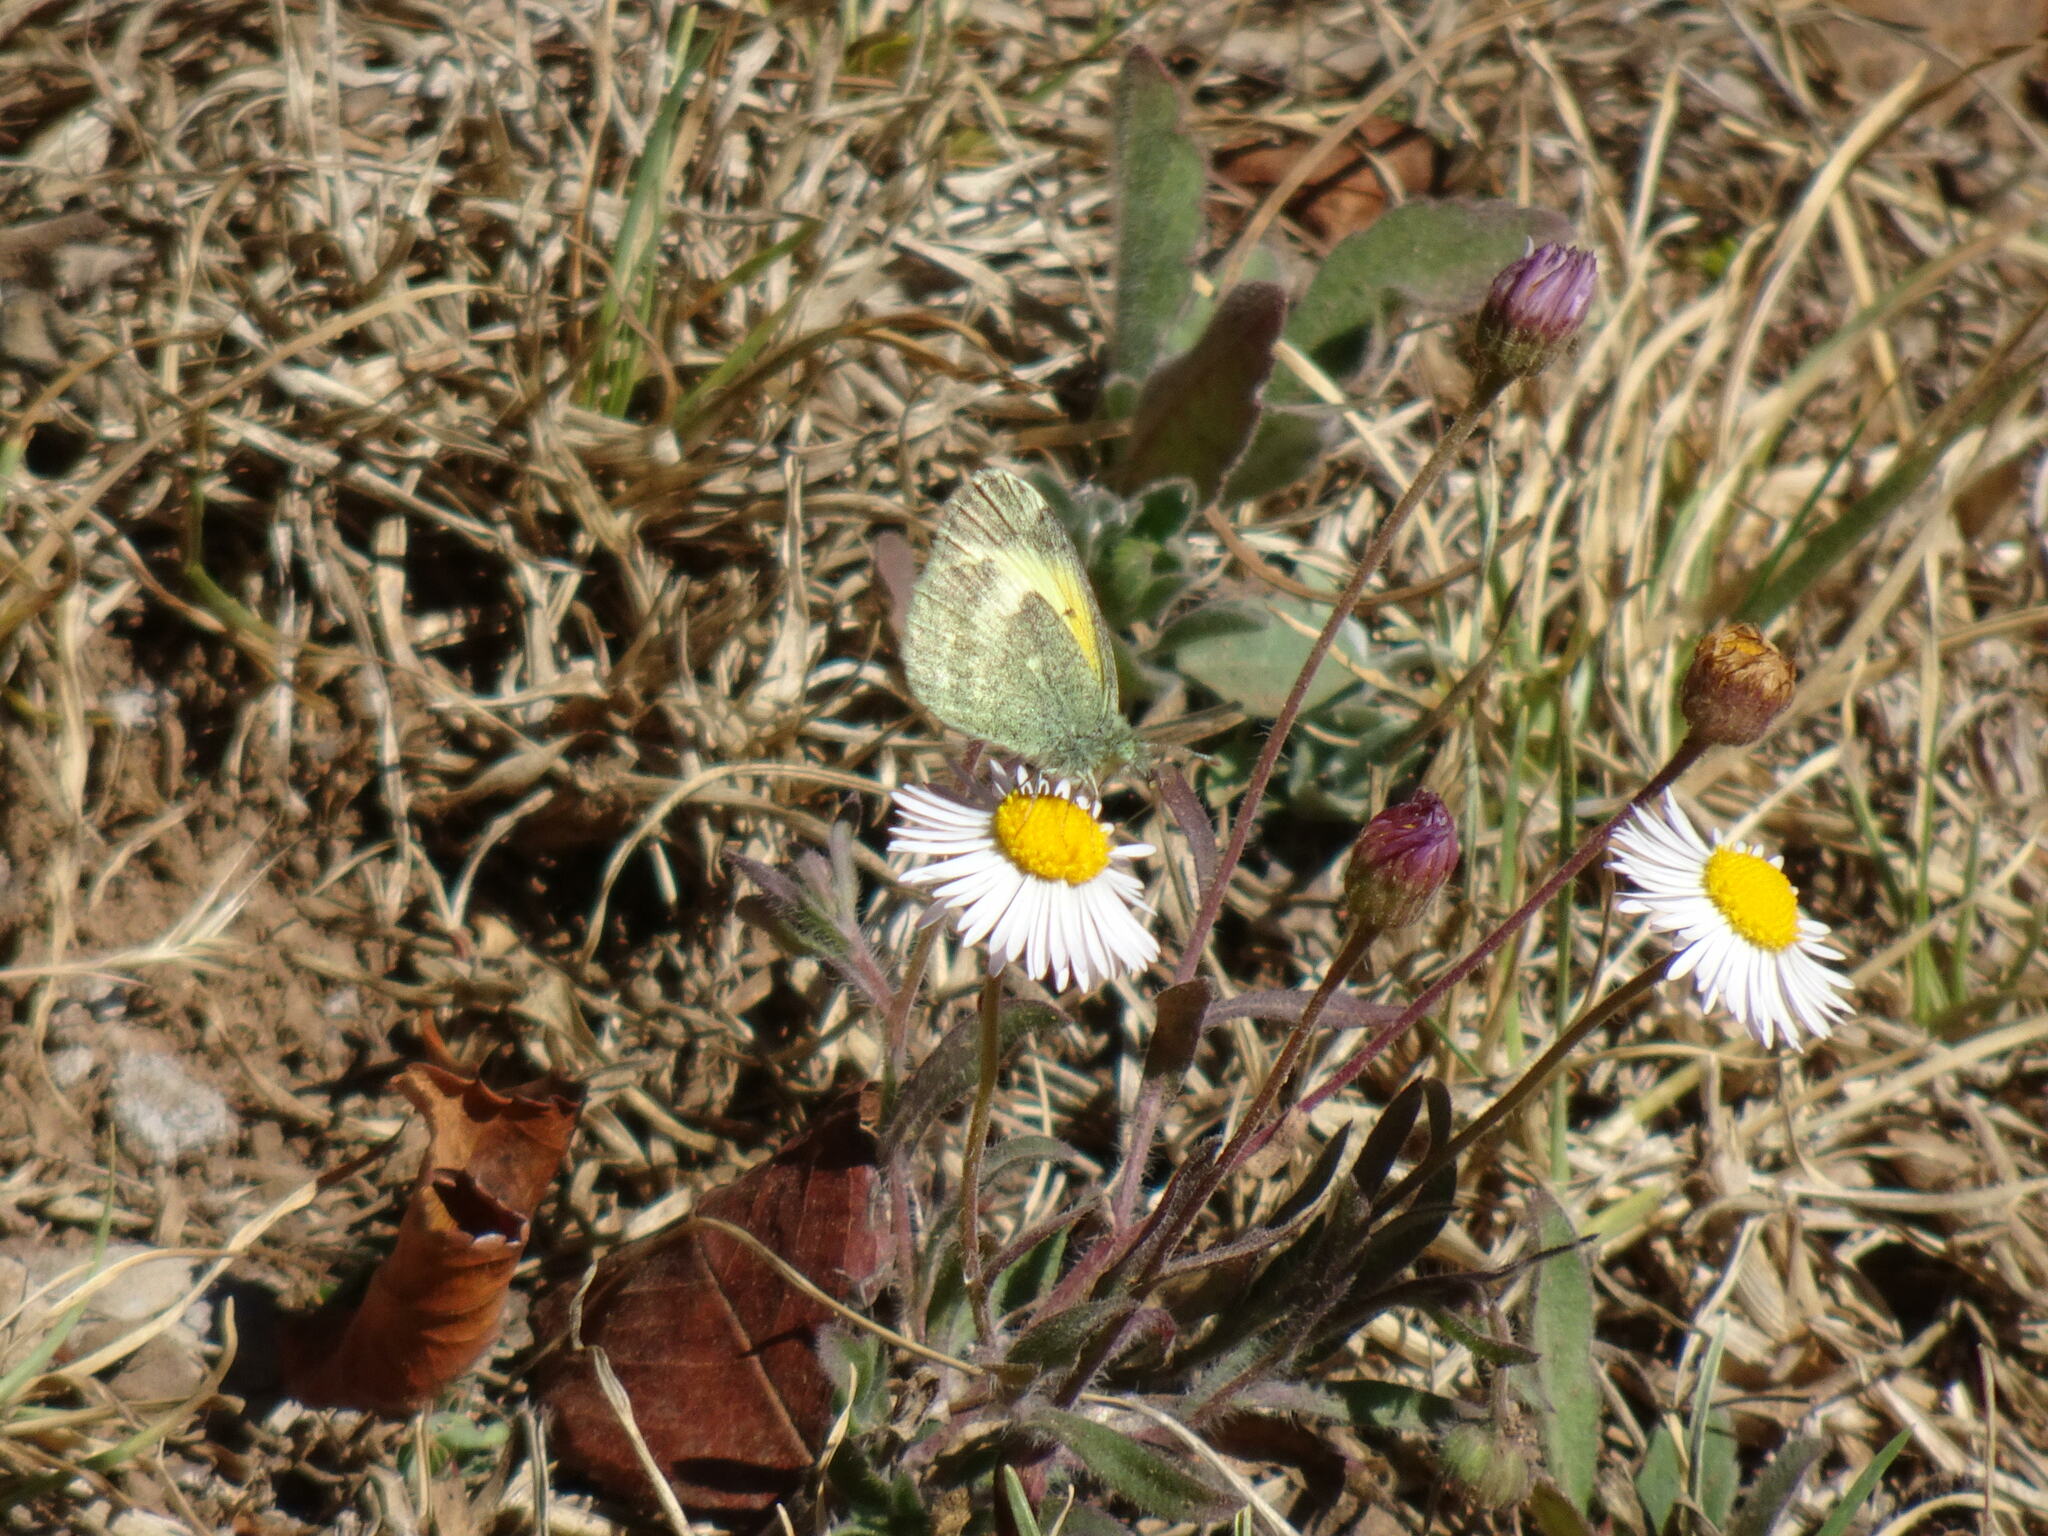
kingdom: Animalia
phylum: Arthropoda
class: Insecta
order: Lepidoptera
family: Pieridae
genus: Nathalis
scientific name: Nathalis iole
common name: Dainty sulphur
